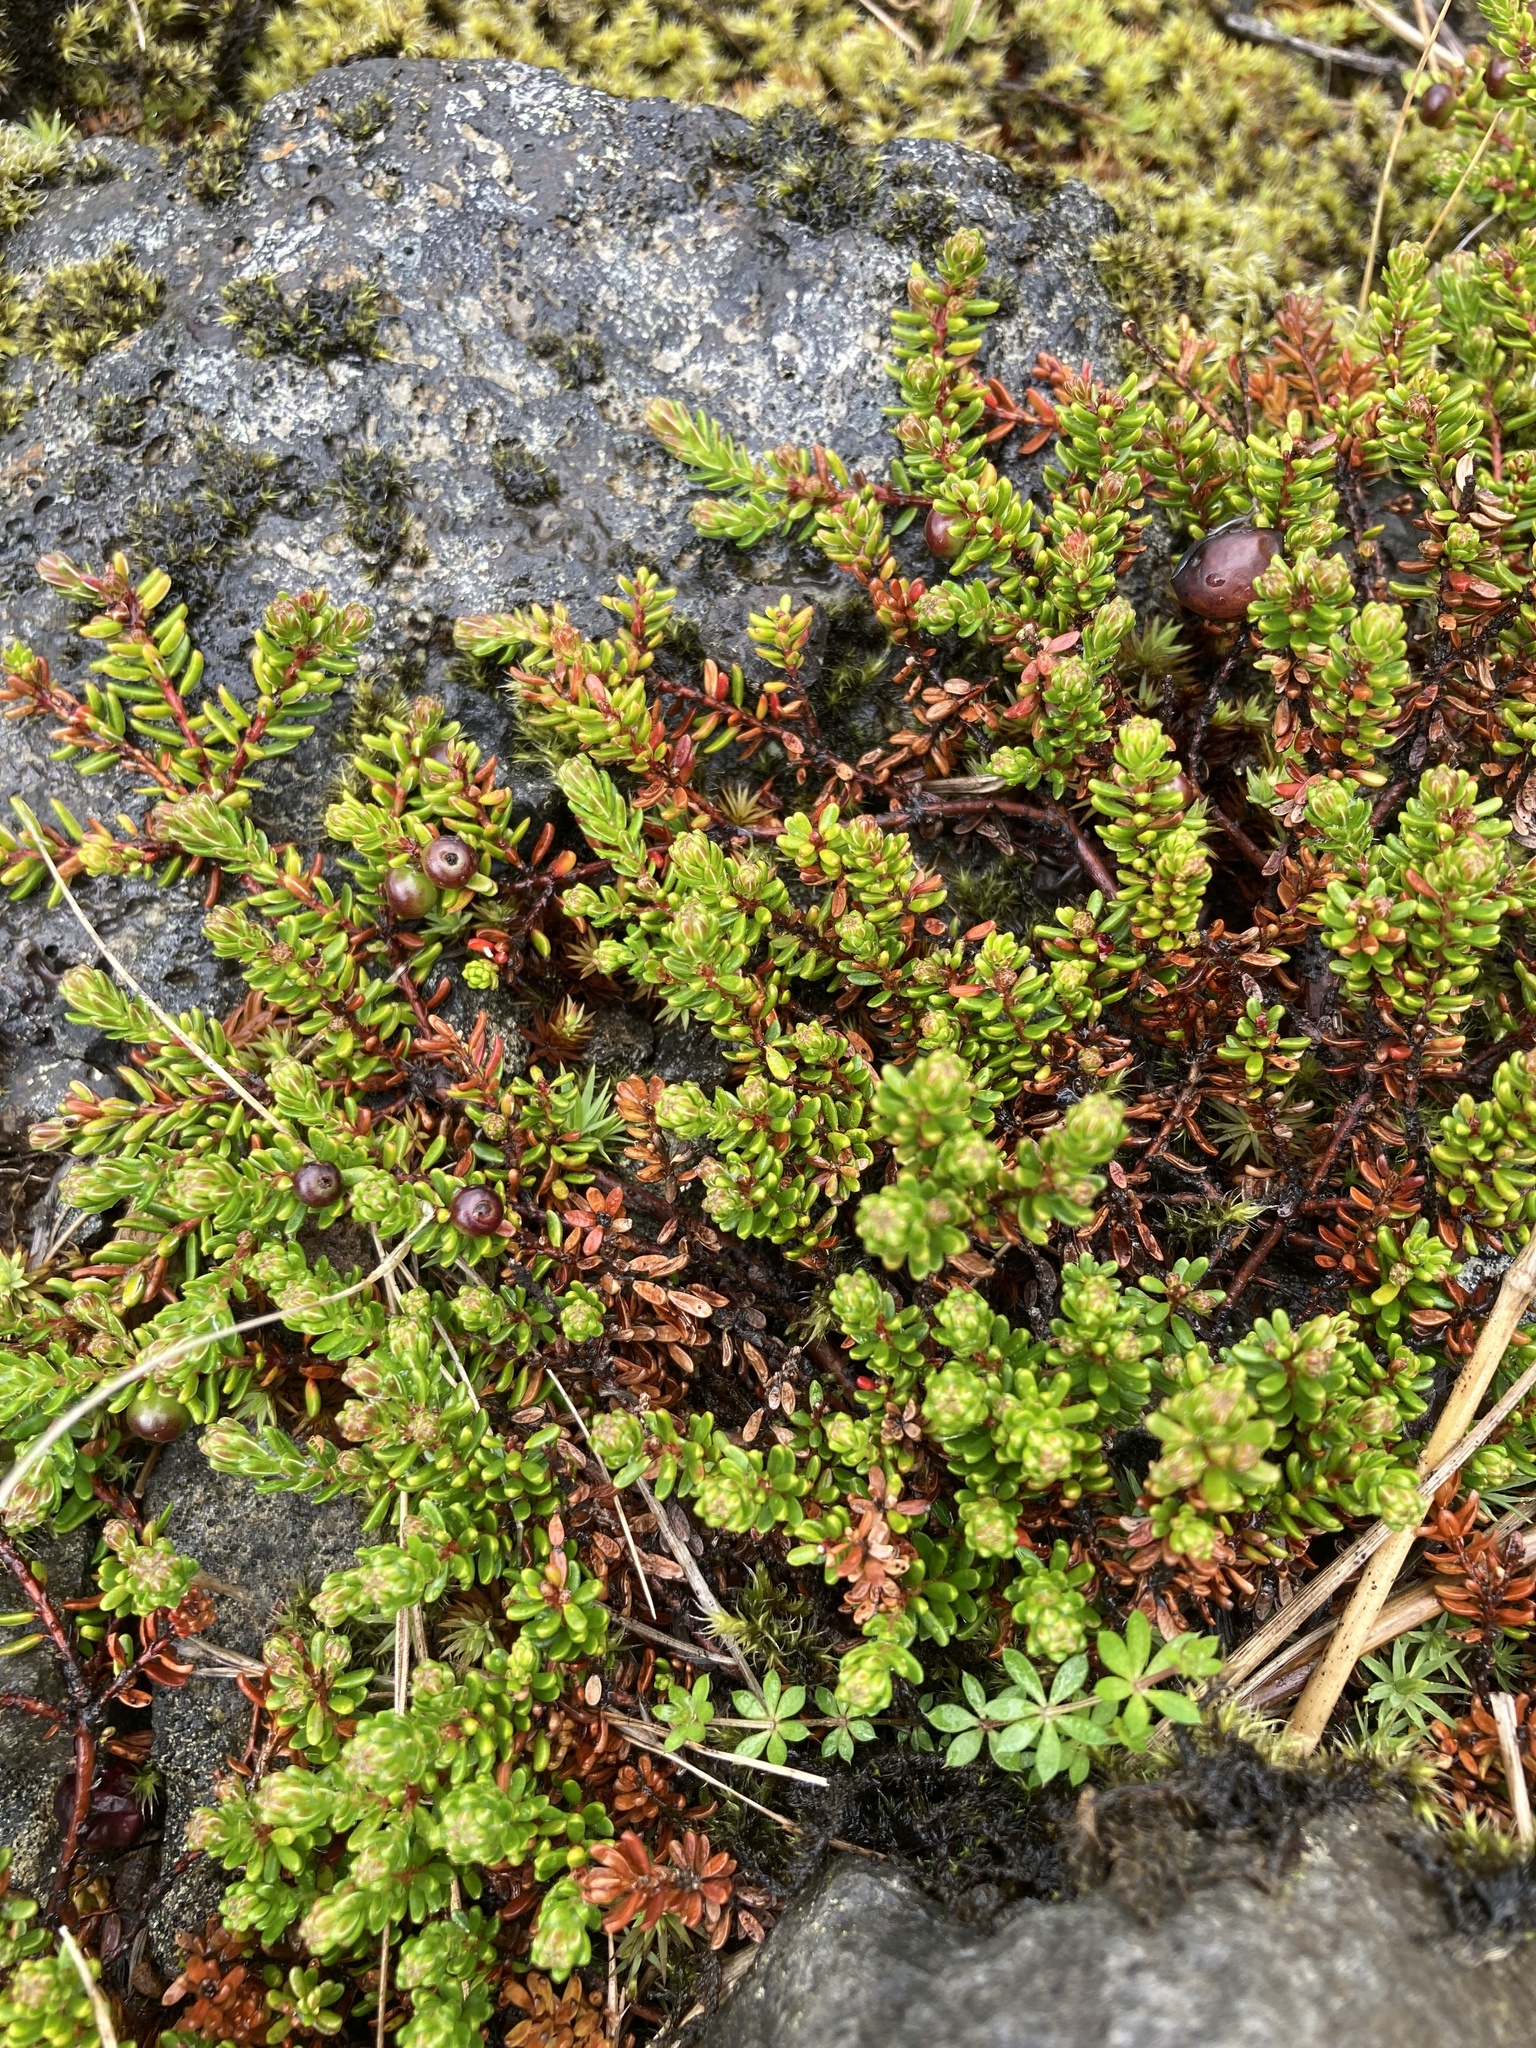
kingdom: Plantae
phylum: Tracheophyta
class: Magnoliopsida
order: Ericales
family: Ericaceae
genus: Empetrum
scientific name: Empetrum nigrum
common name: Black crowberry
